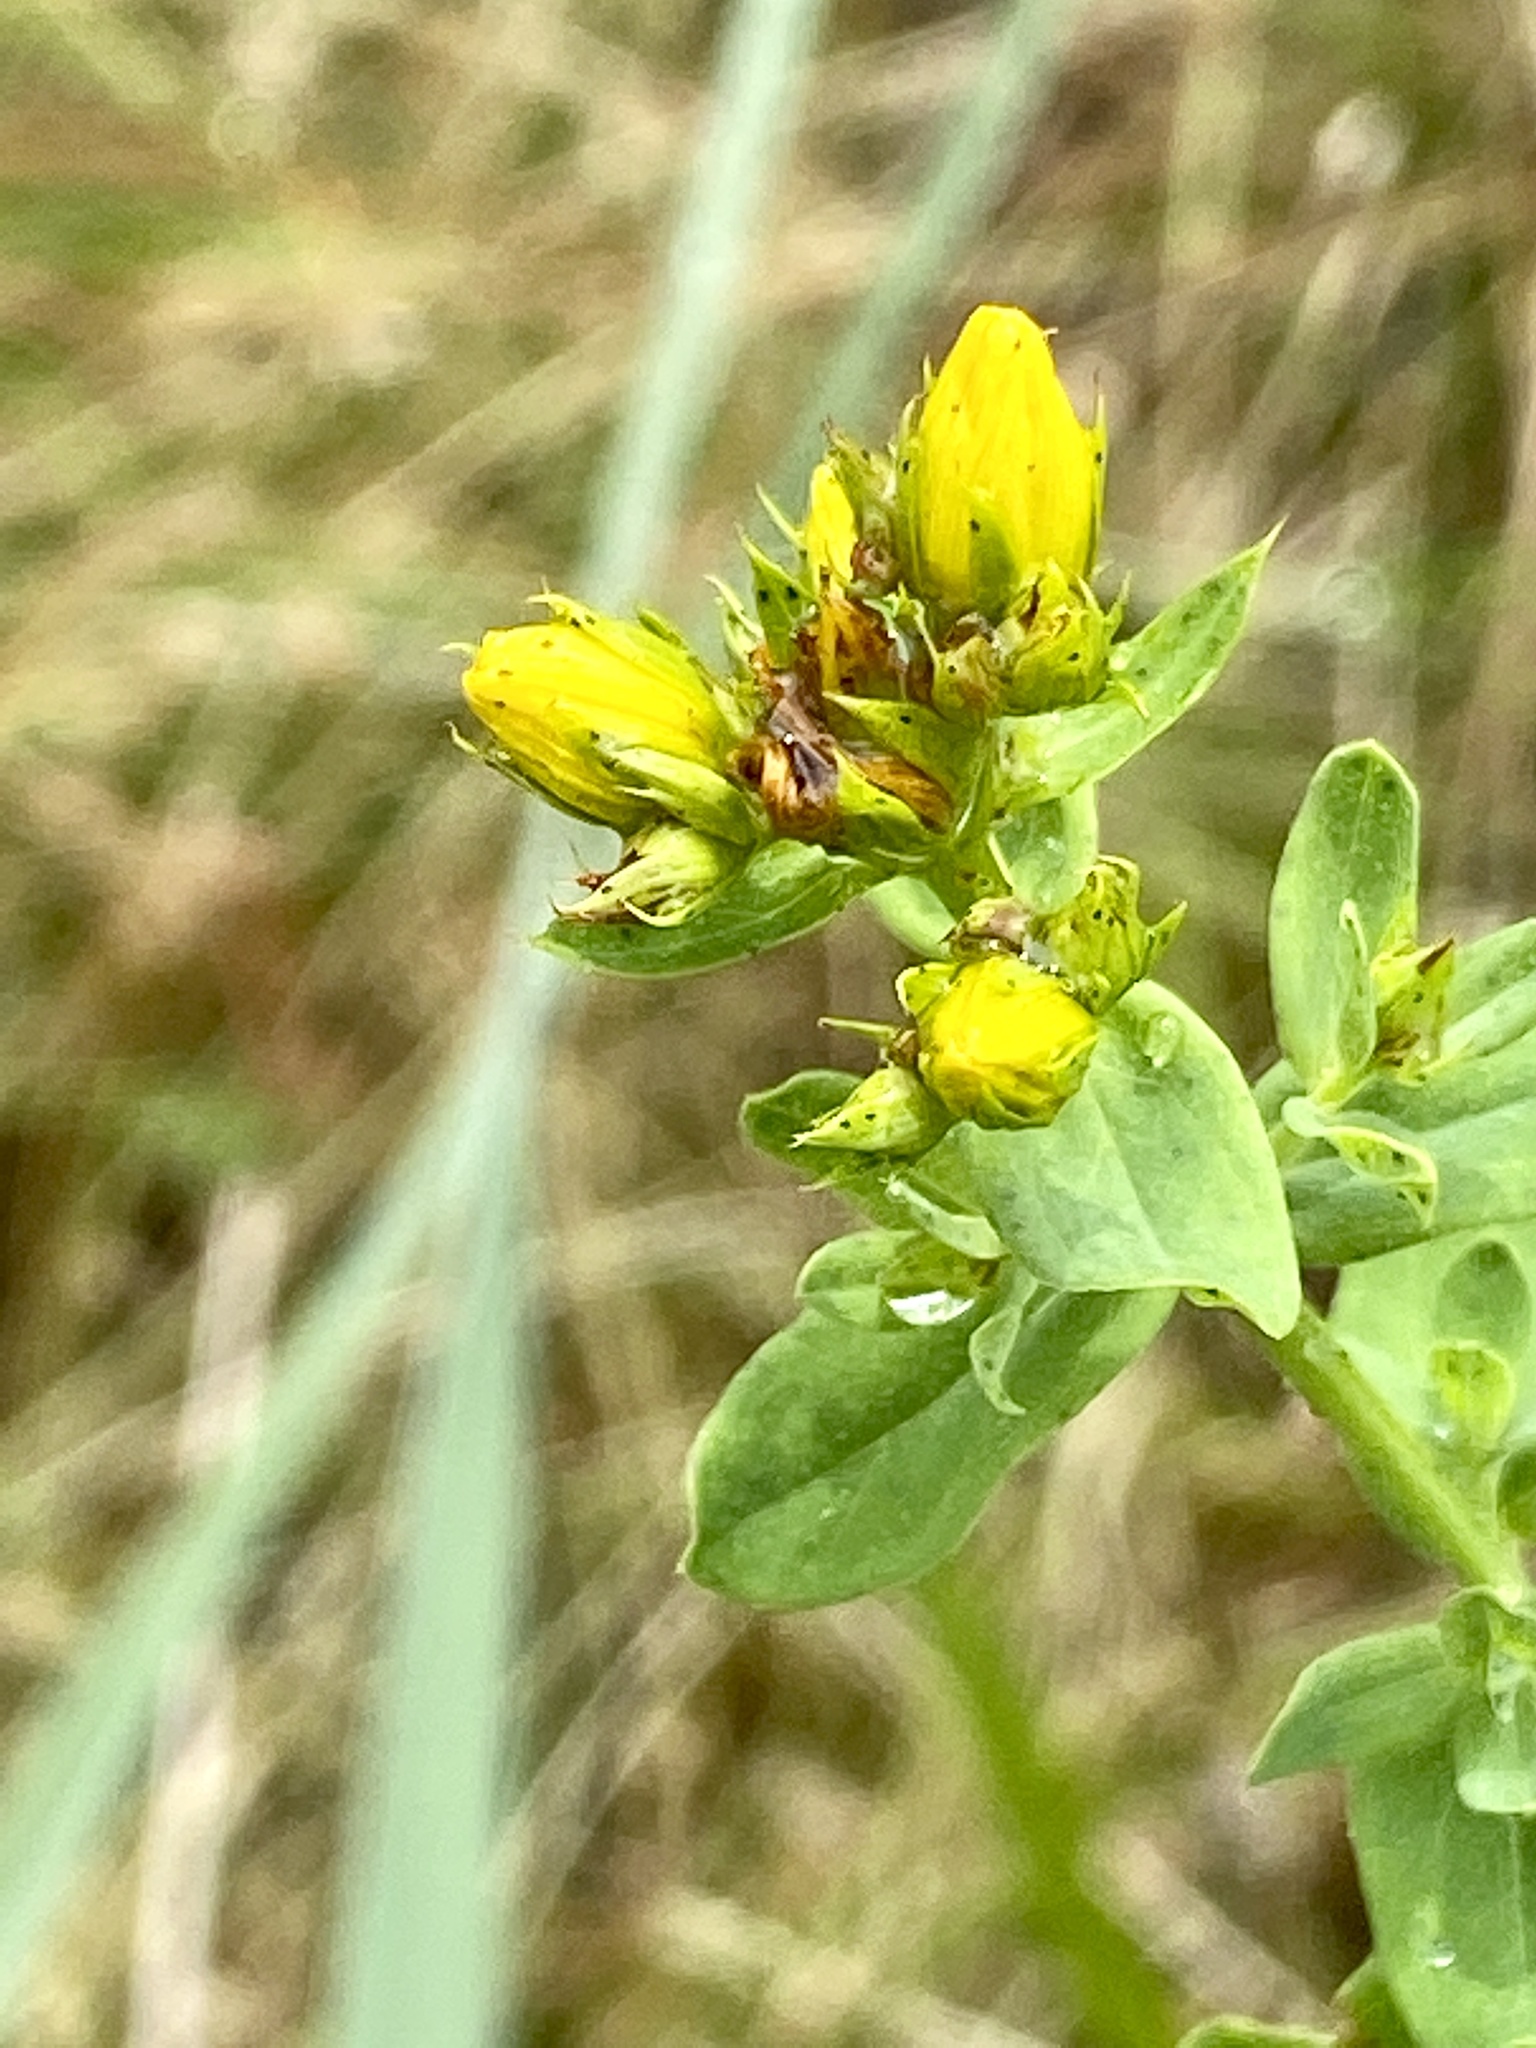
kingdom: Plantae
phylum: Tracheophyta
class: Magnoliopsida
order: Malpighiales
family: Hypericaceae
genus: Hypericum
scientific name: Hypericum perforatum
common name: Common st. johnswort
